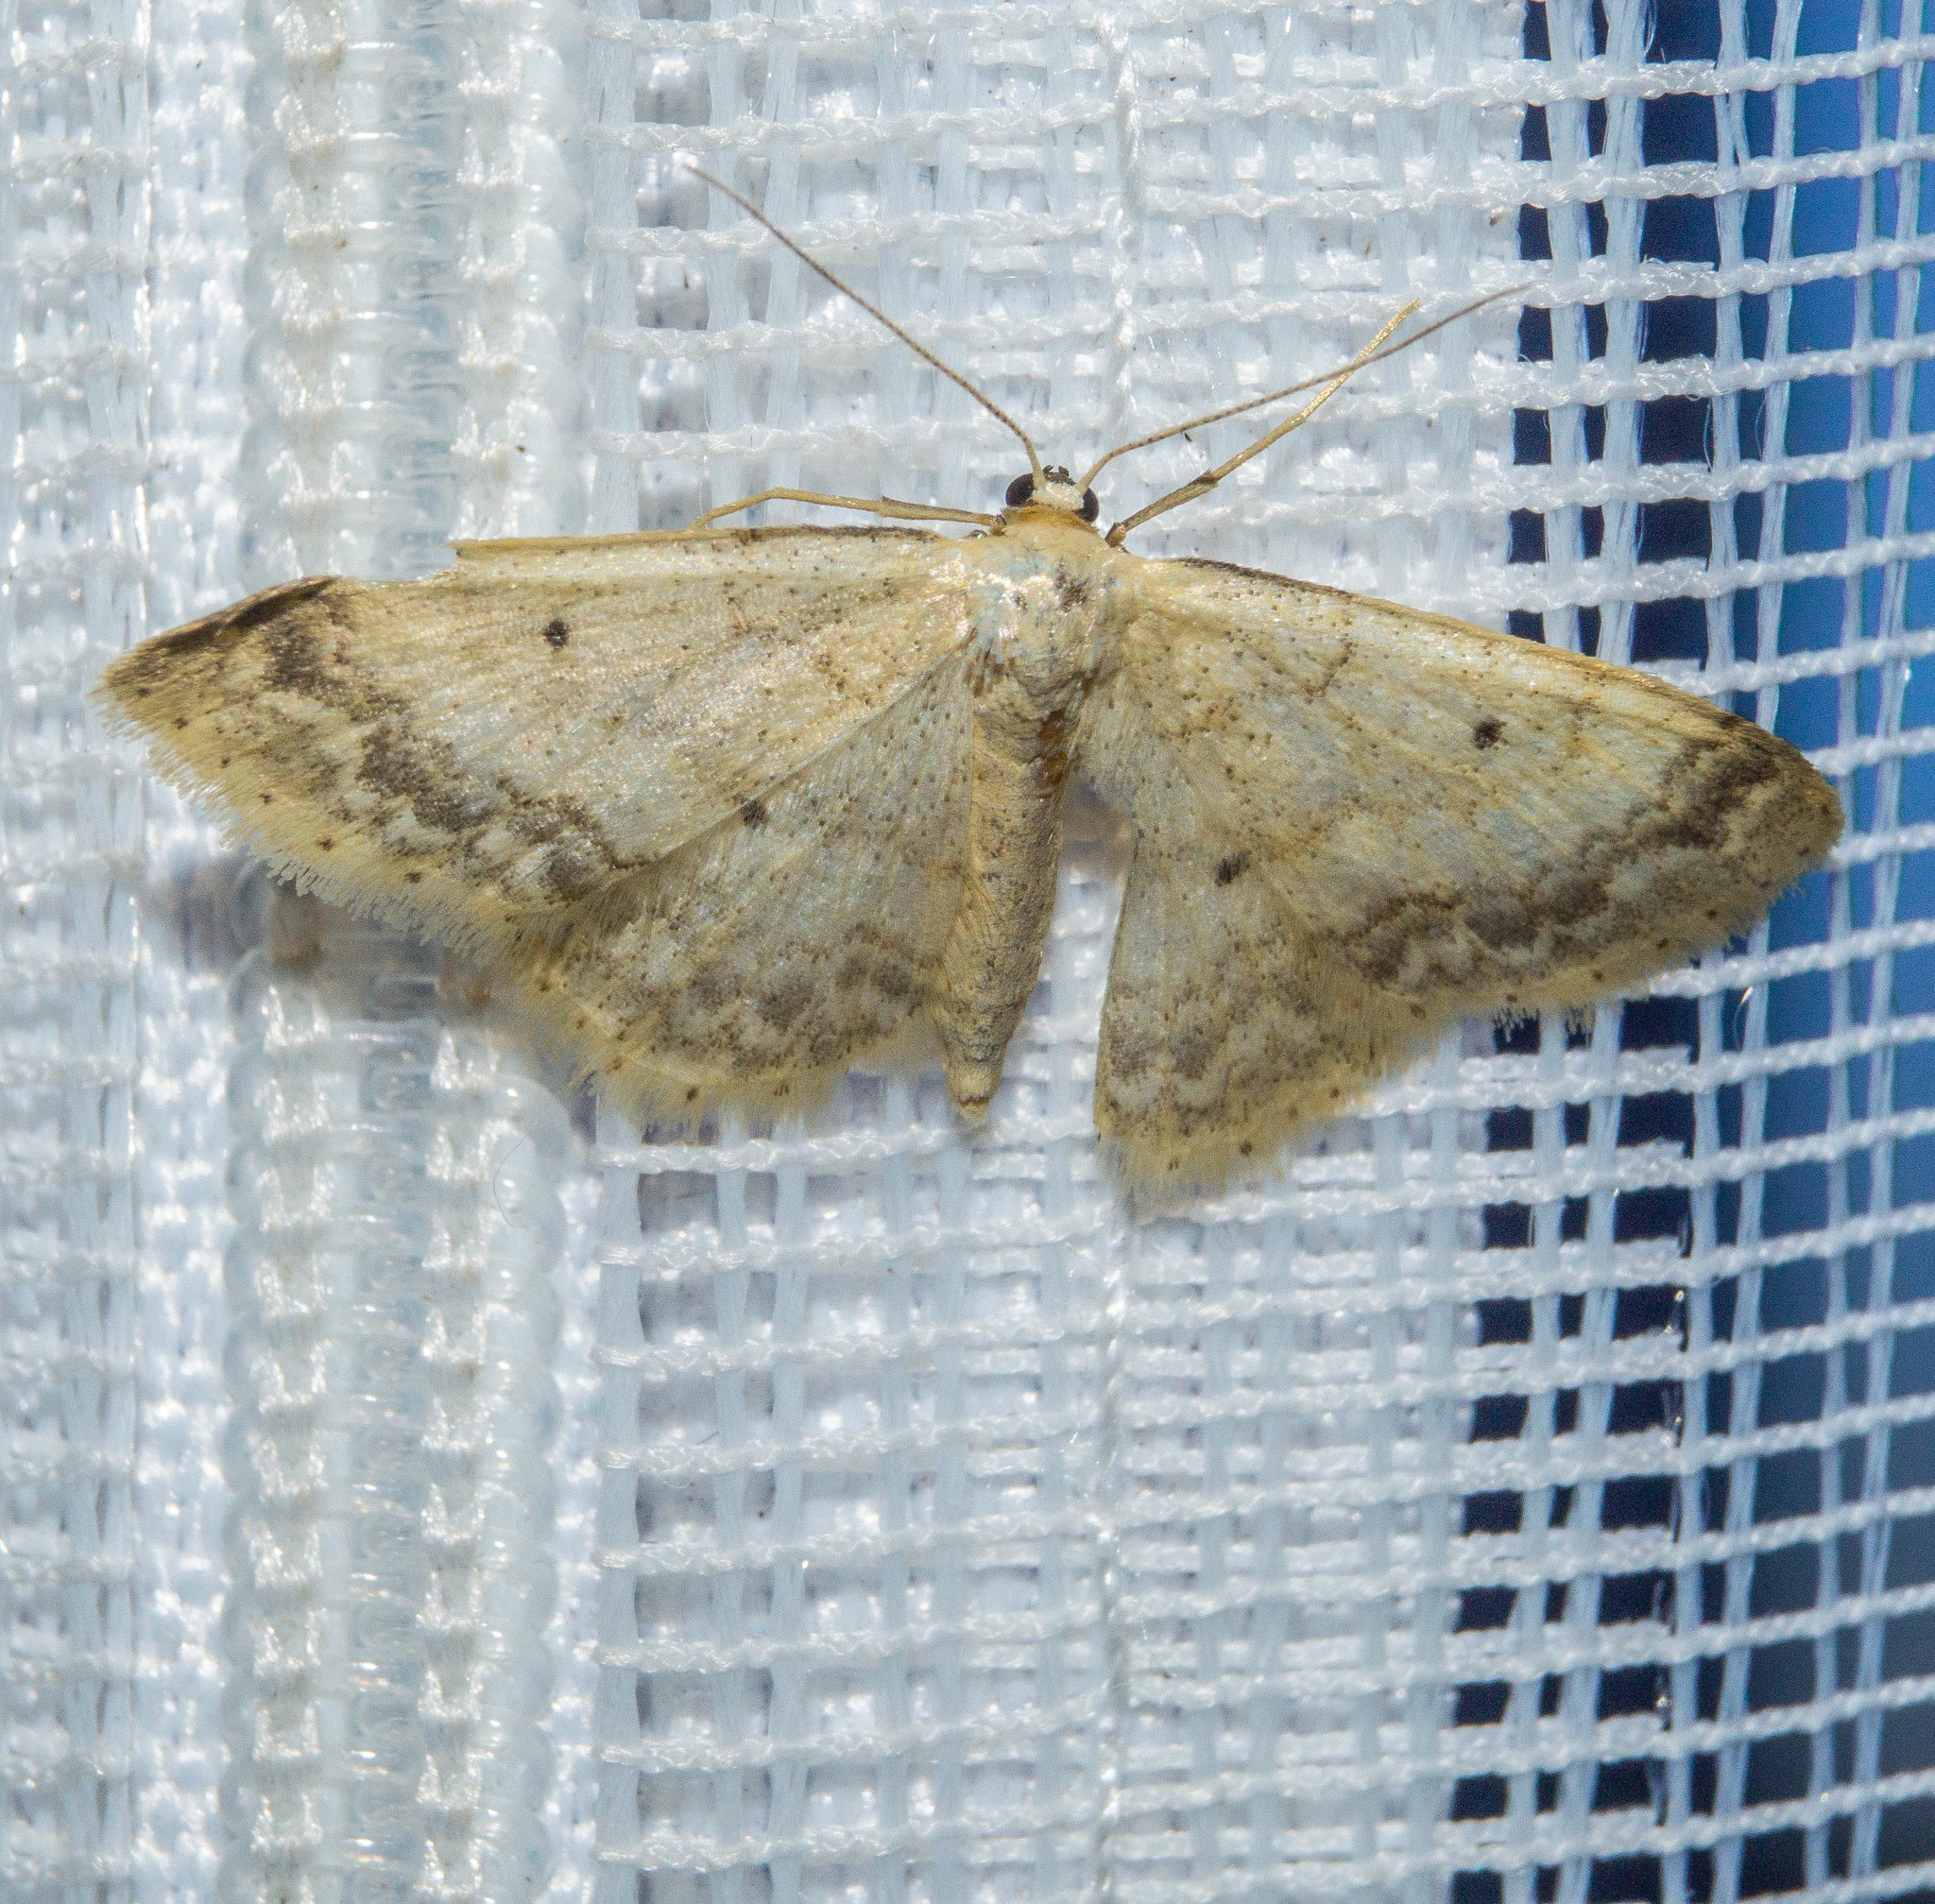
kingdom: Animalia
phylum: Arthropoda
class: Insecta
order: Lepidoptera
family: Geometridae
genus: Idaea
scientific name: Idaea biselata
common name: Small fan-footed wave
